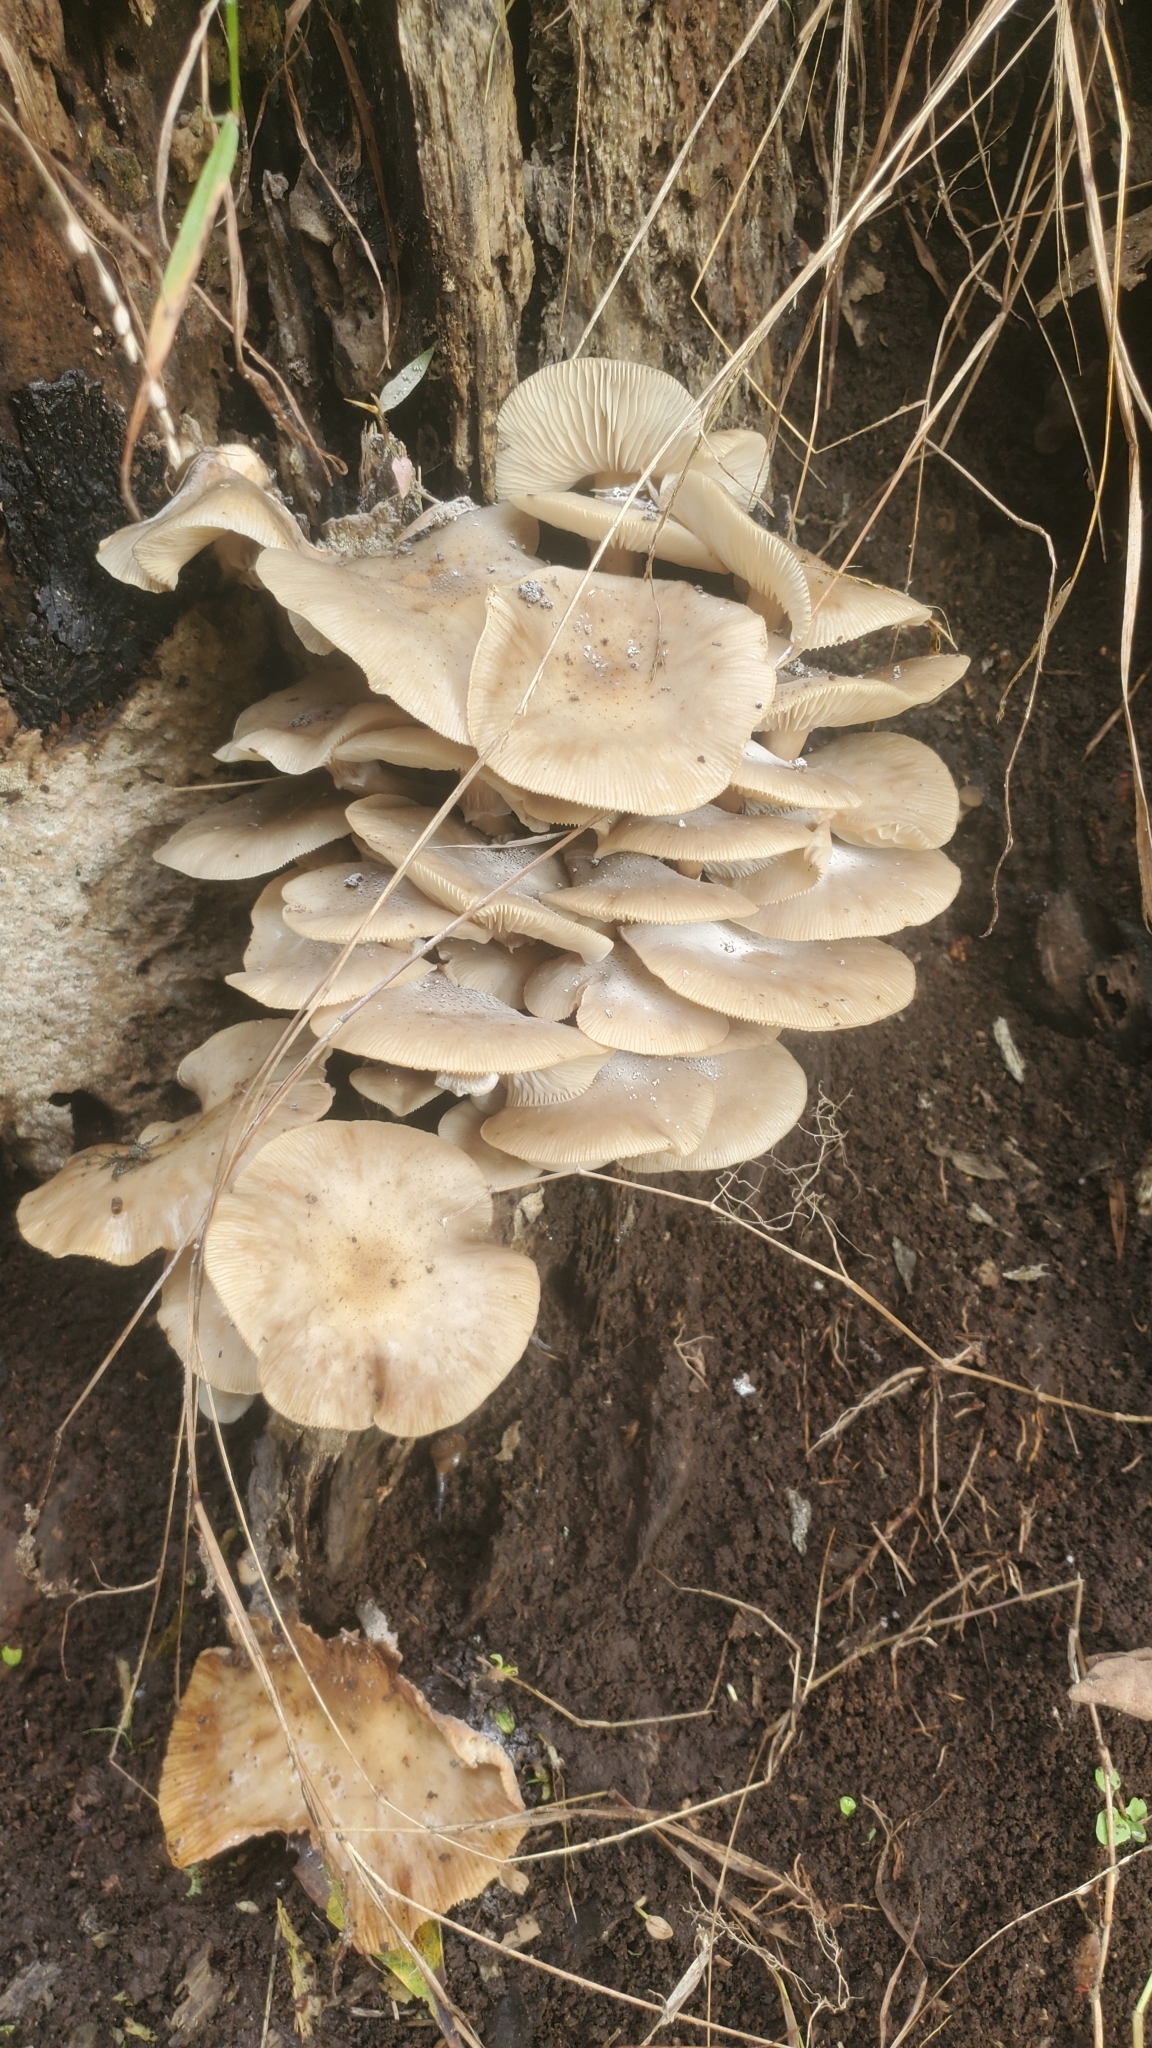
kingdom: Fungi
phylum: Basidiomycota
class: Agaricomycetes
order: Agaricales
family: Physalacriaceae
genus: Armillaria
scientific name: Armillaria novae-zelandiae
